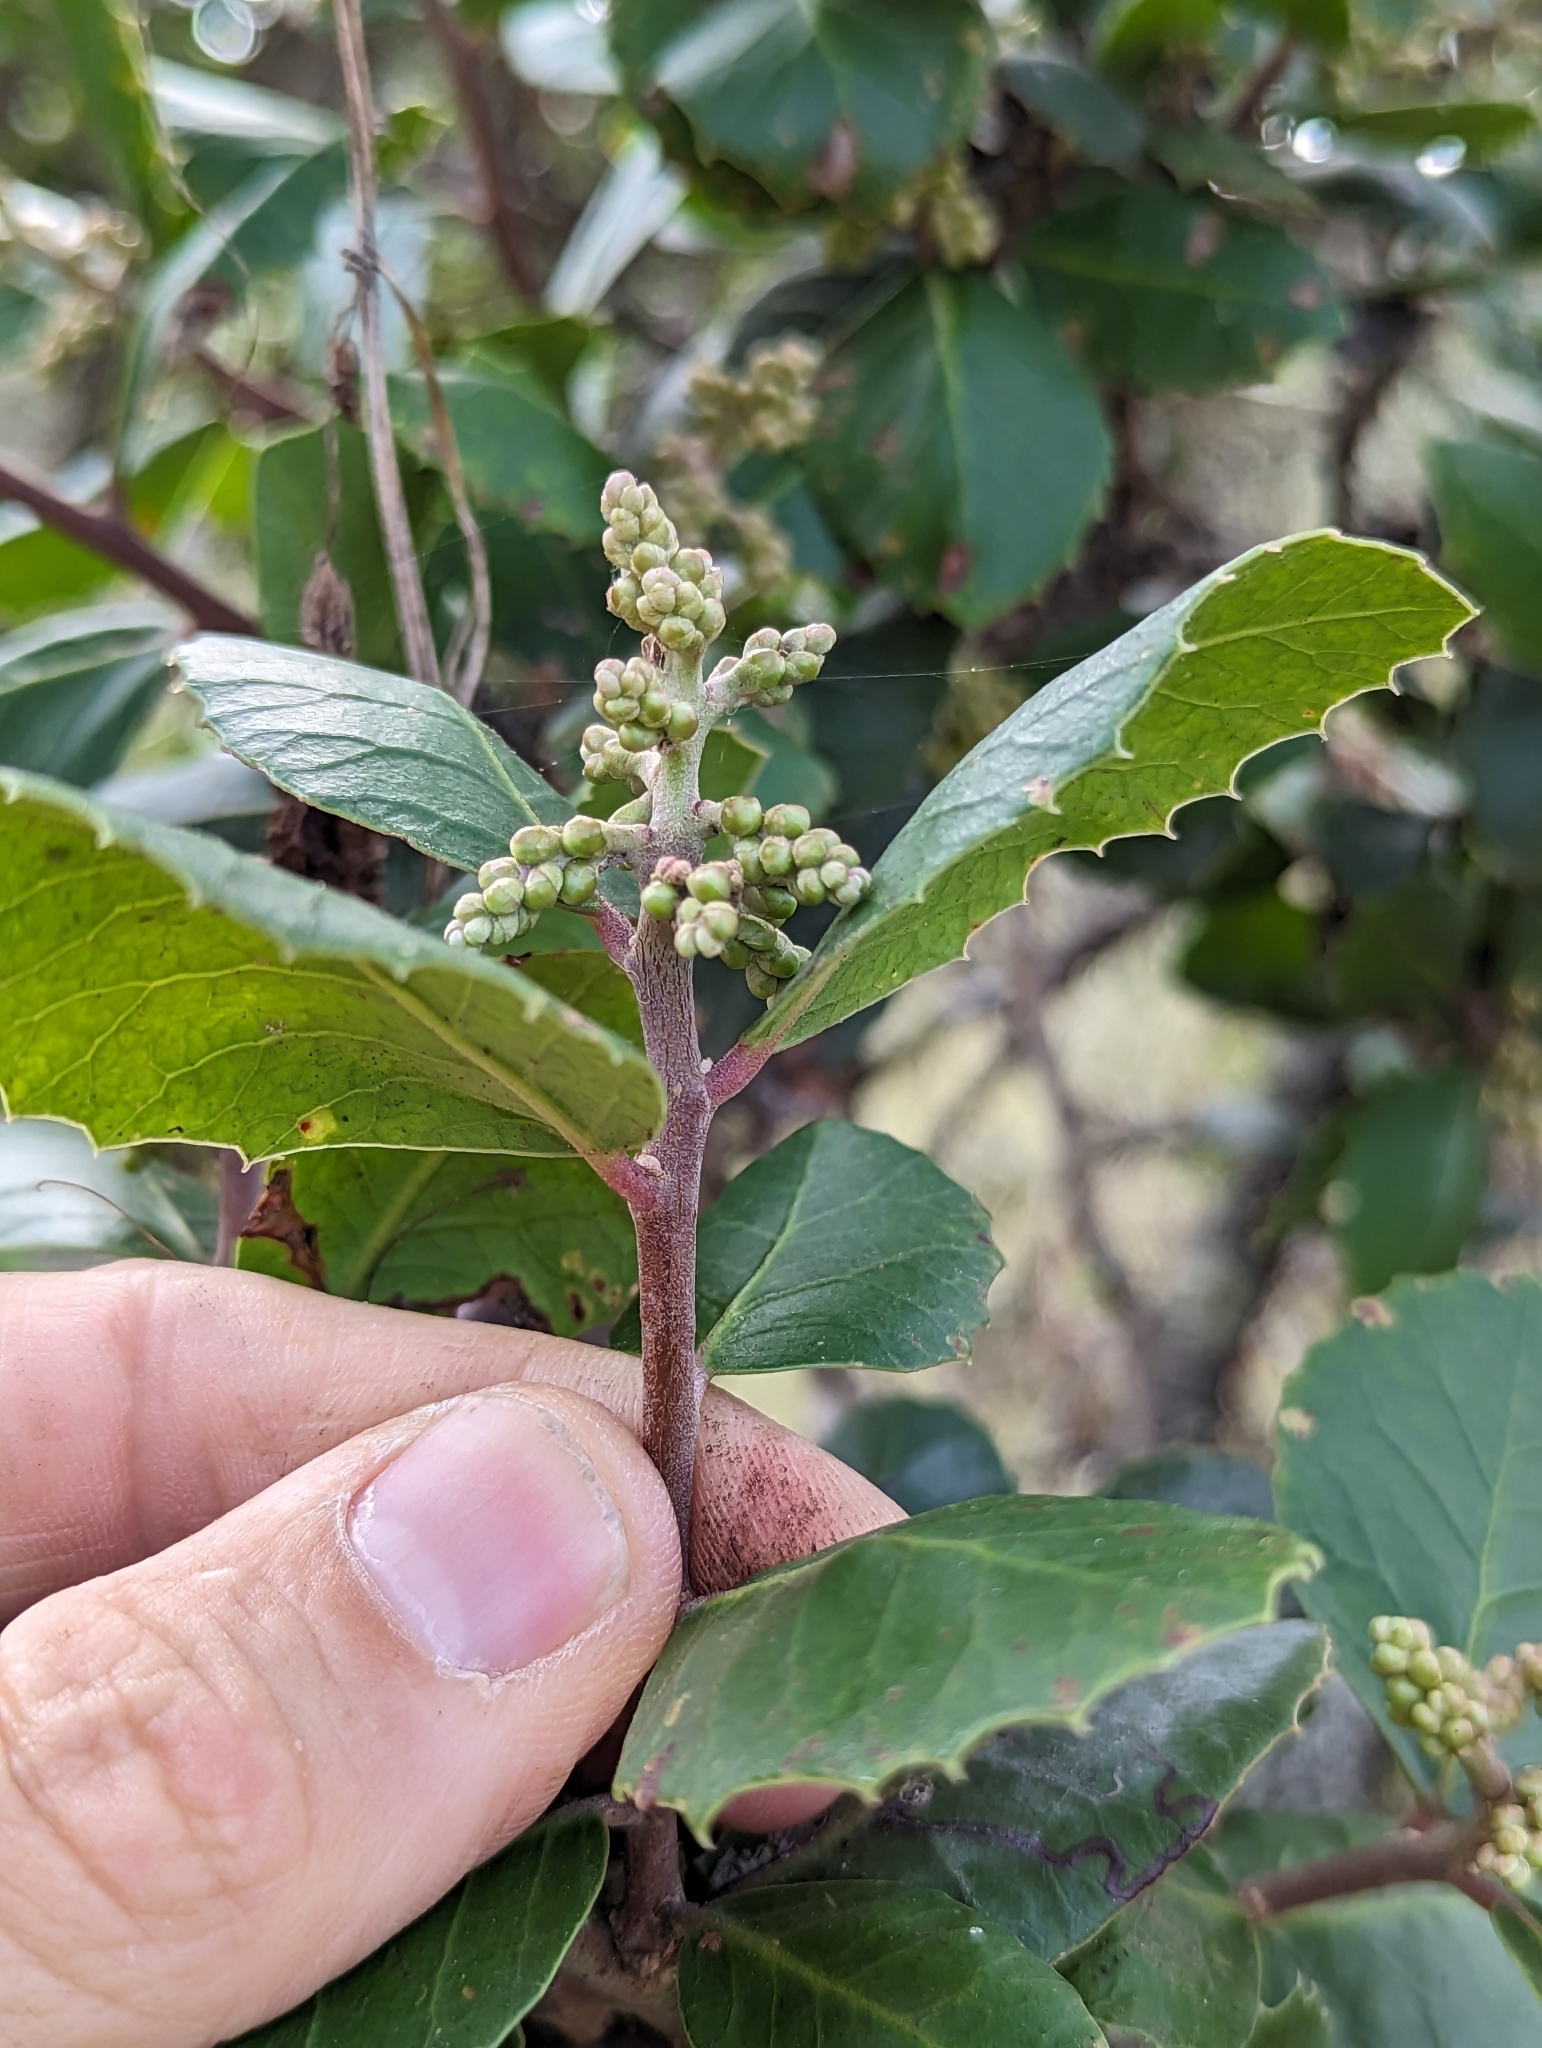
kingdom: Plantae
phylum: Tracheophyta
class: Magnoliopsida
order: Sapindales
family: Anacardiaceae
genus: Rhus
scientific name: Rhus integrifolia
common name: Lemonade sumac
